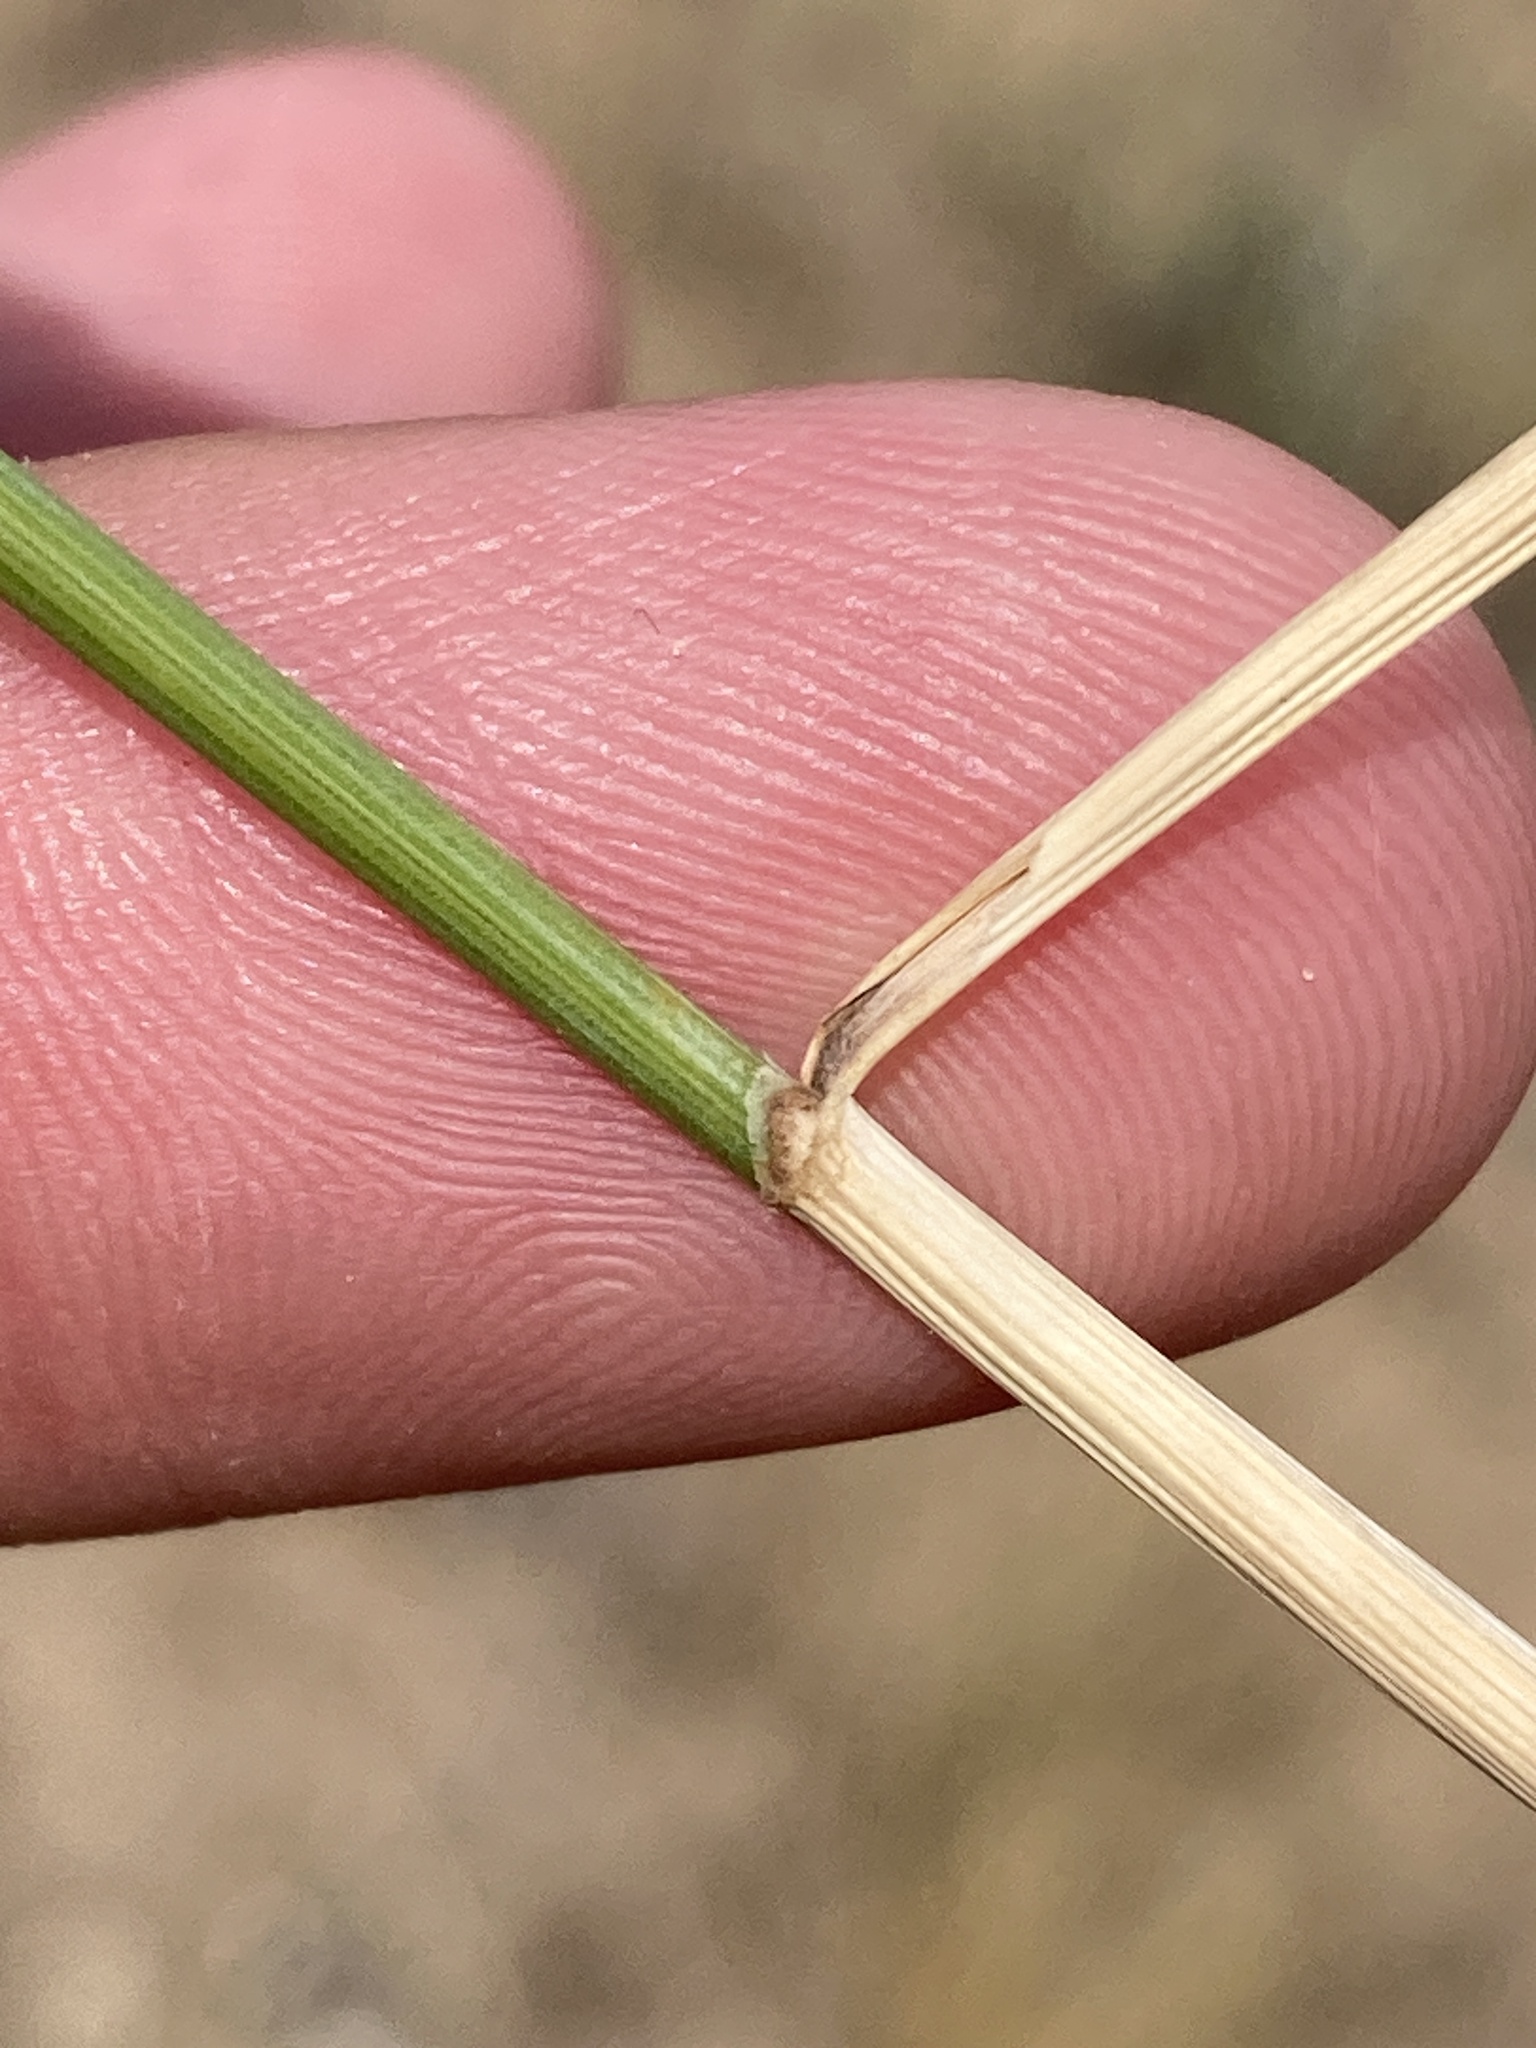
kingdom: Plantae
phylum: Tracheophyta
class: Liliopsida
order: Poales
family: Poaceae
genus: Agropyron
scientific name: Agropyron cristatum
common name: Crested wheatgrass
